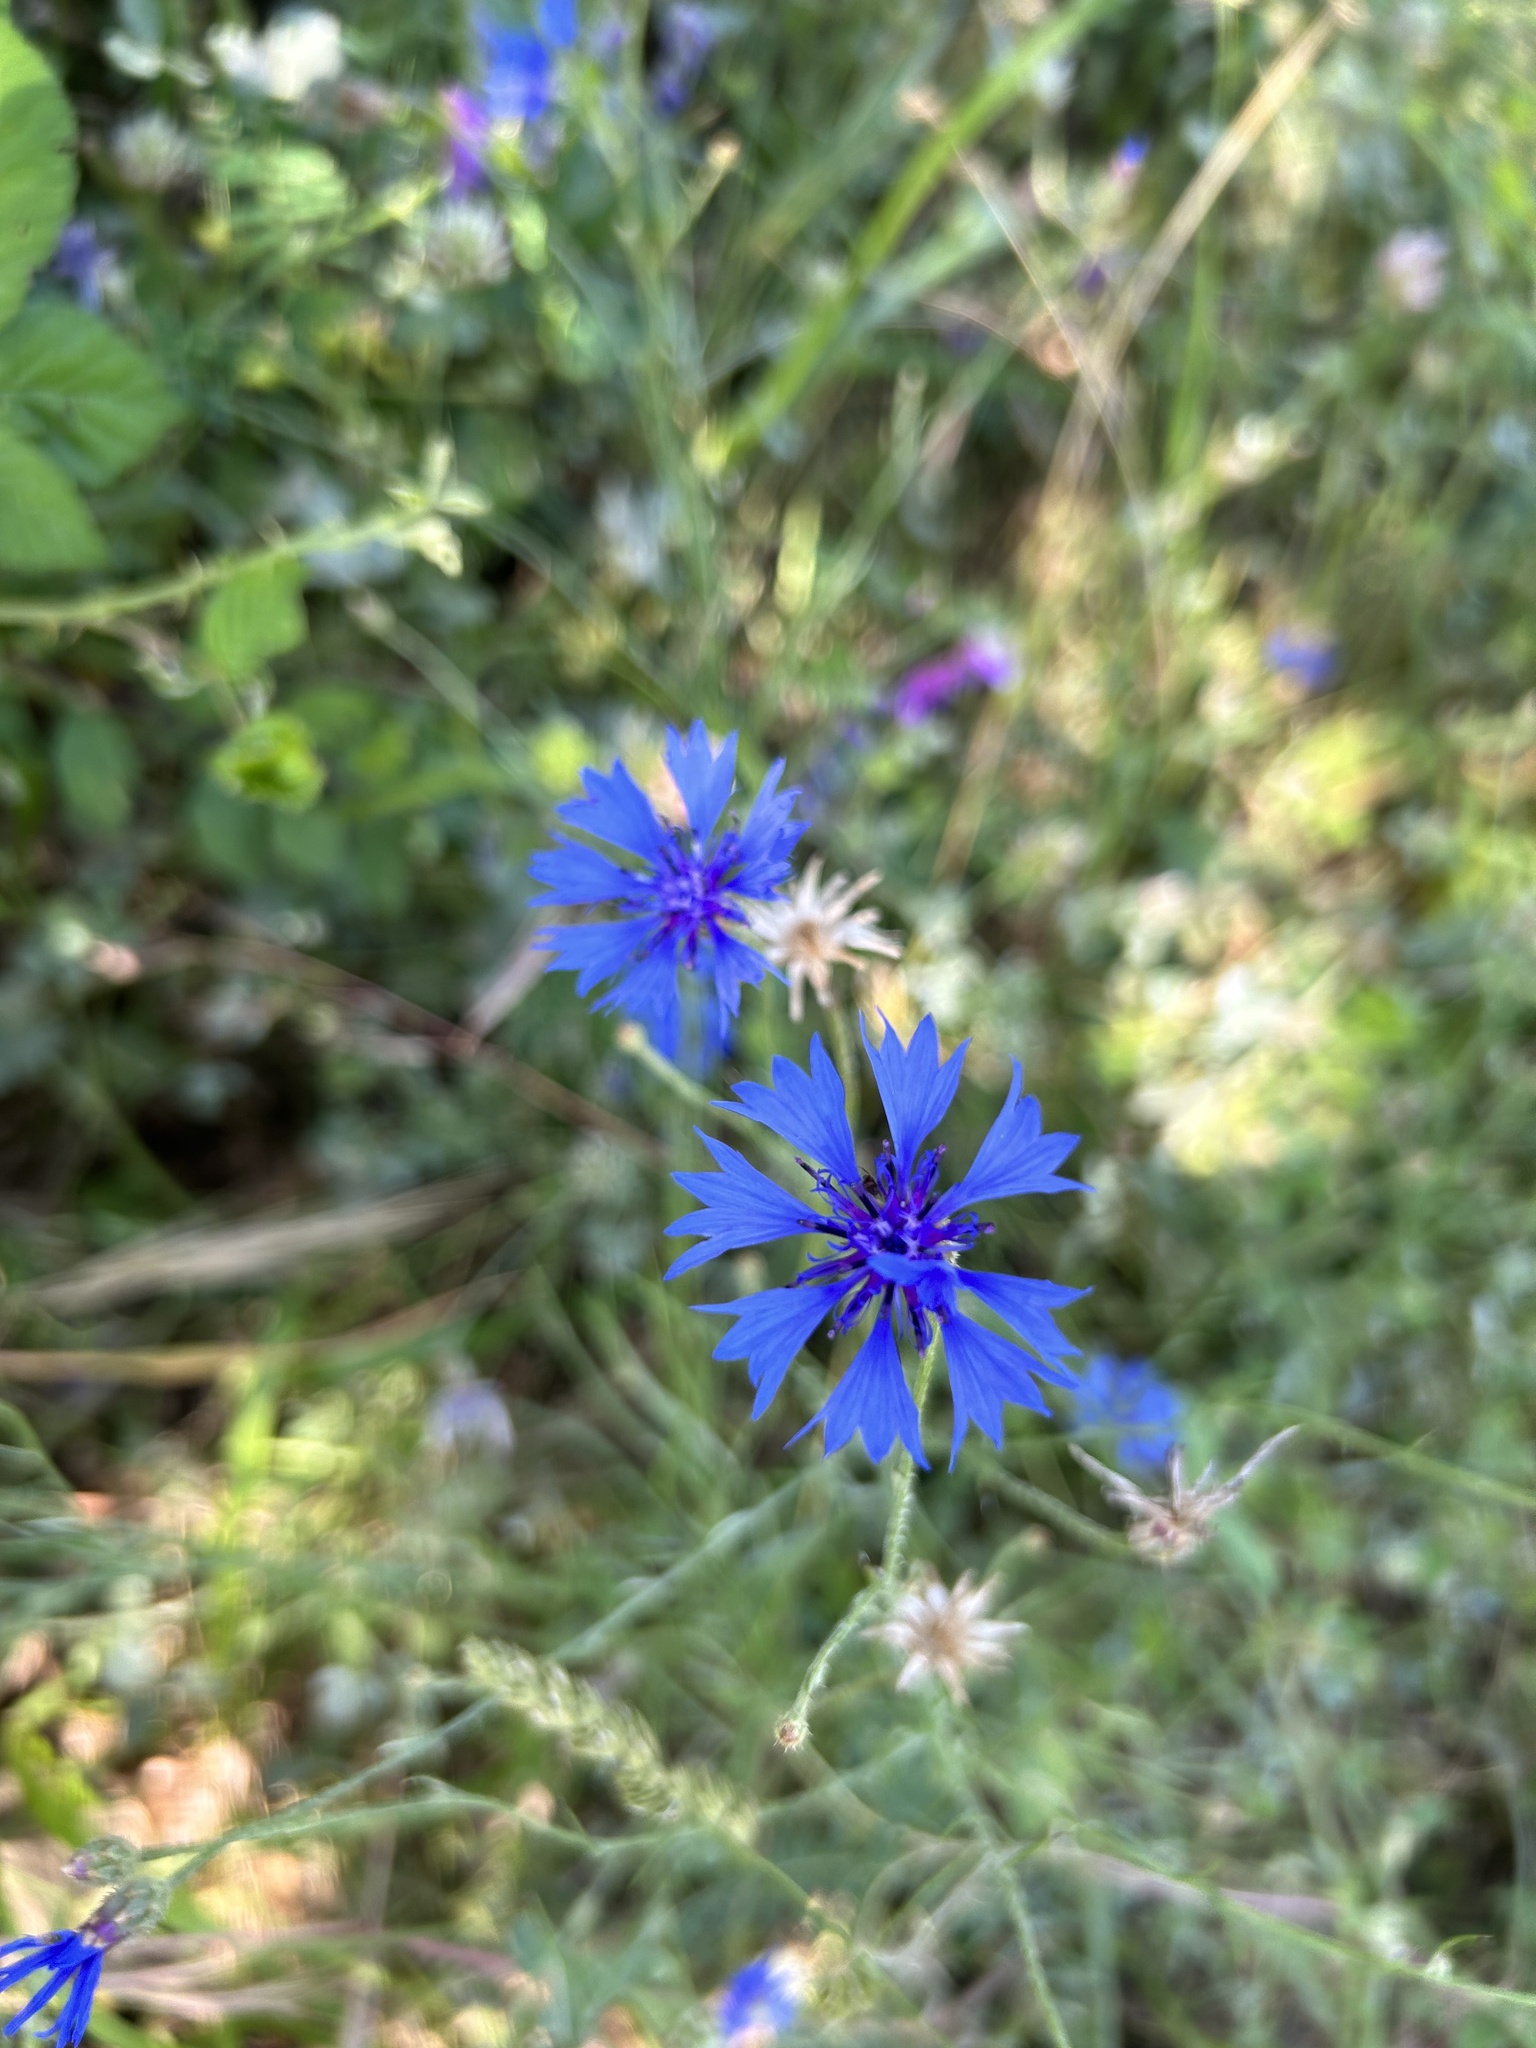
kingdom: Plantae
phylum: Tracheophyta
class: Magnoliopsida
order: Asterales
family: Asteraceae
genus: Centaurea
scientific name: Centaurea cyanus
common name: Cornflower
